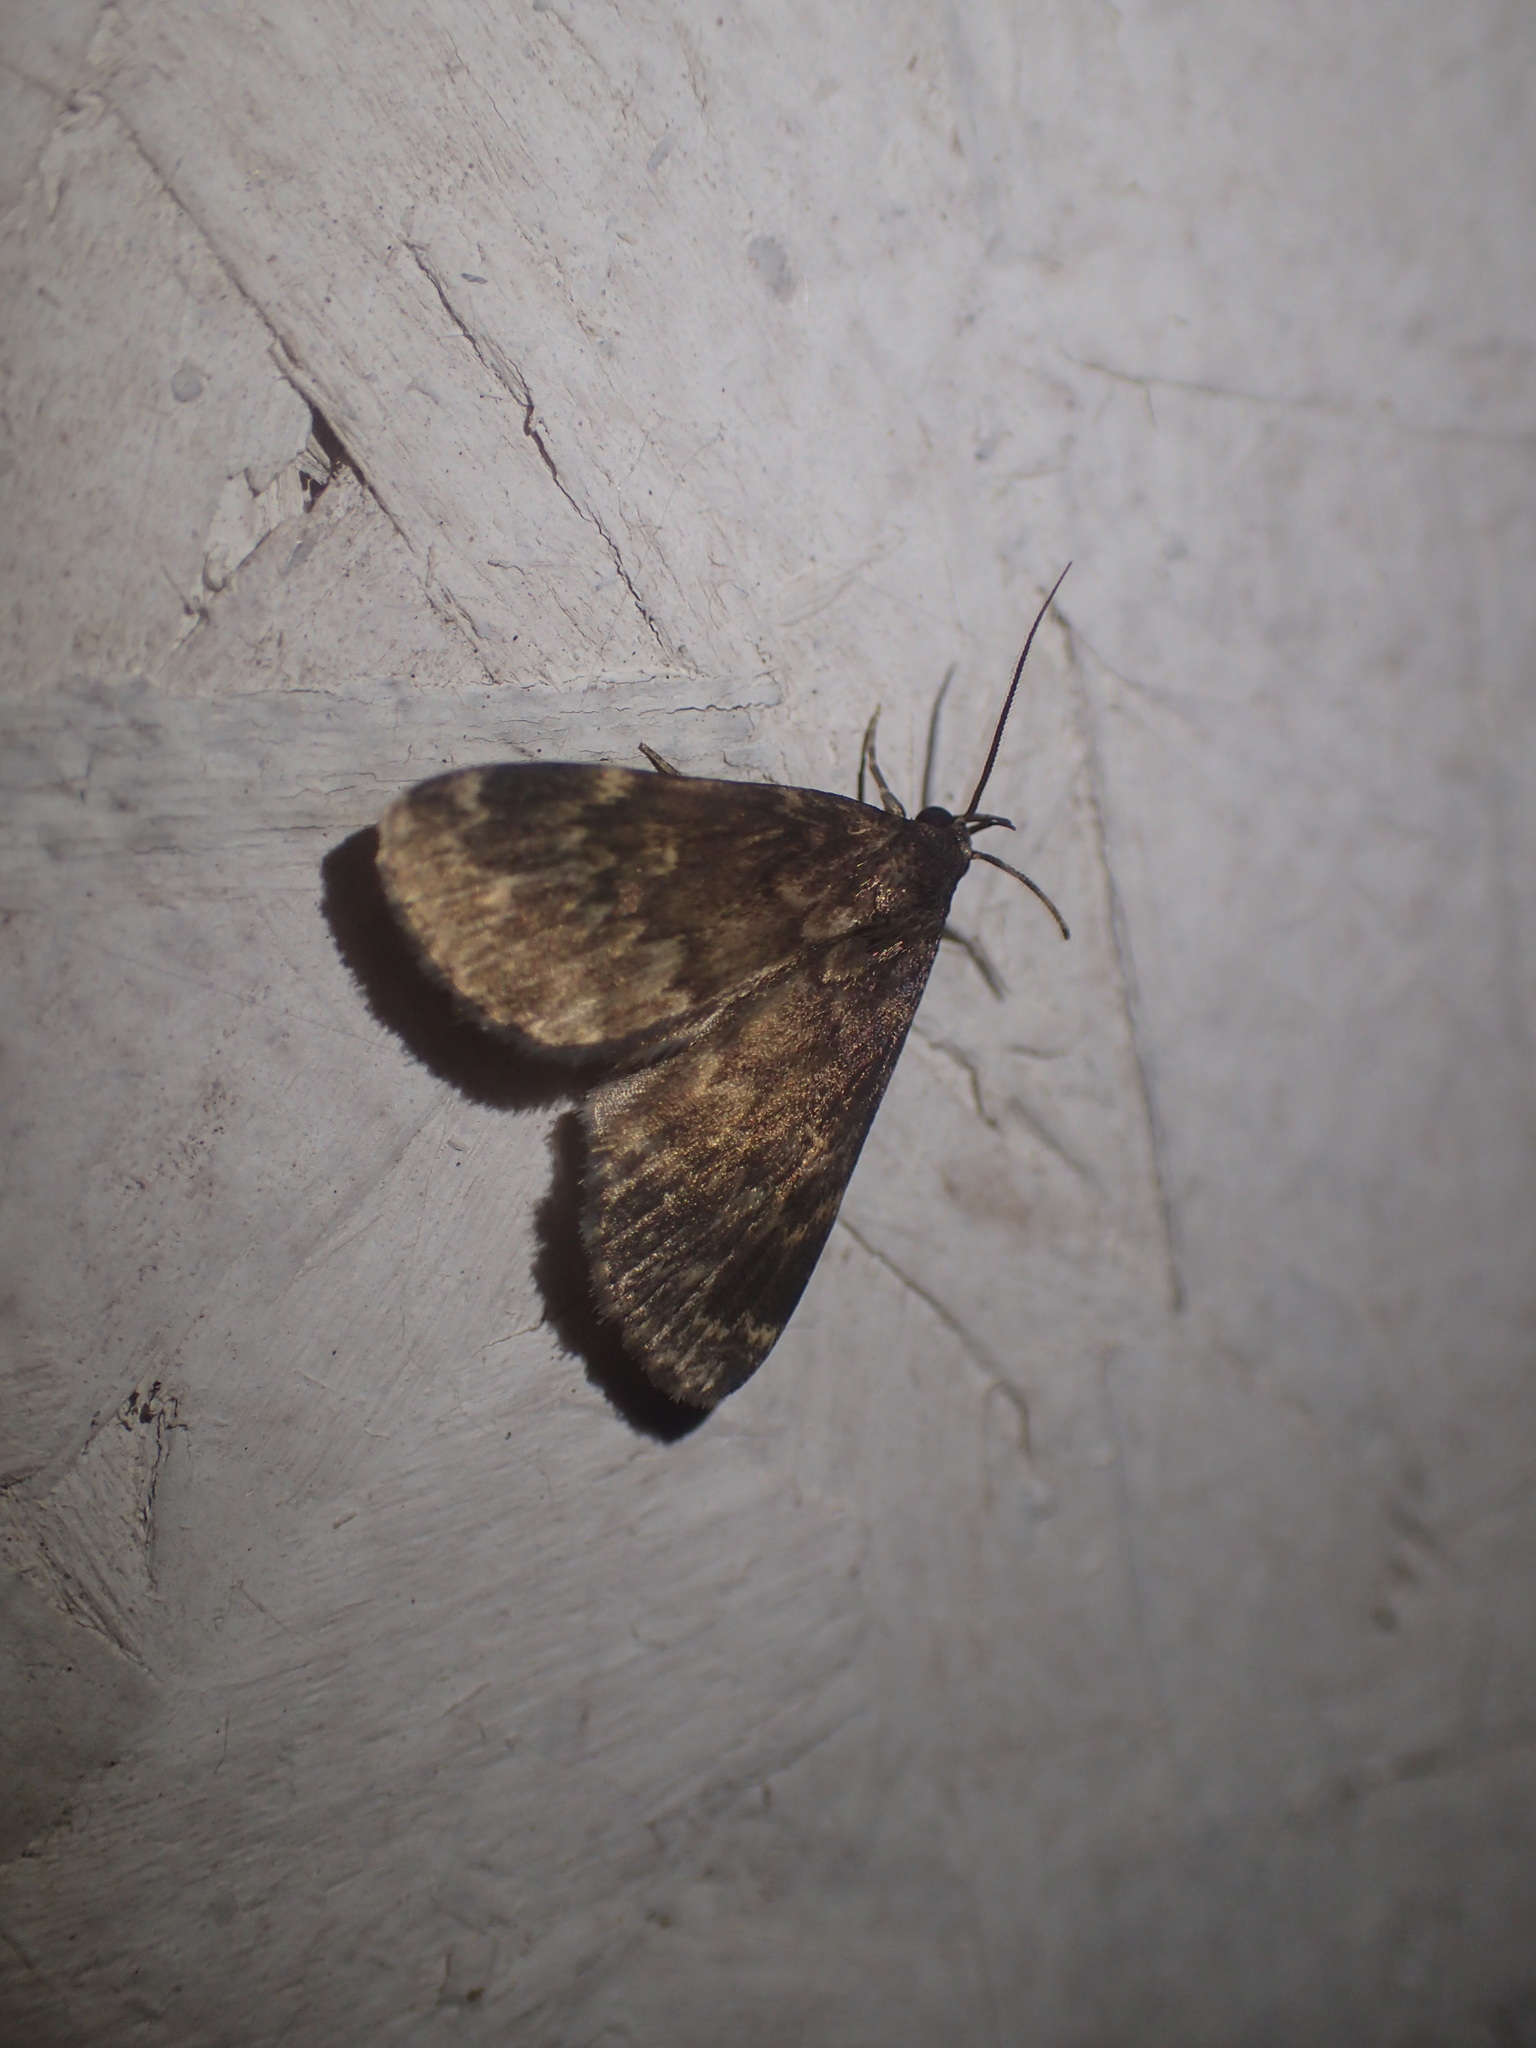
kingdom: Animalia
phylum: Arthropoda
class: Insecta
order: Lepidoptera
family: Erebidae
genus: Idia
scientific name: Idia lubricalis
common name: Twin-striped tabby
